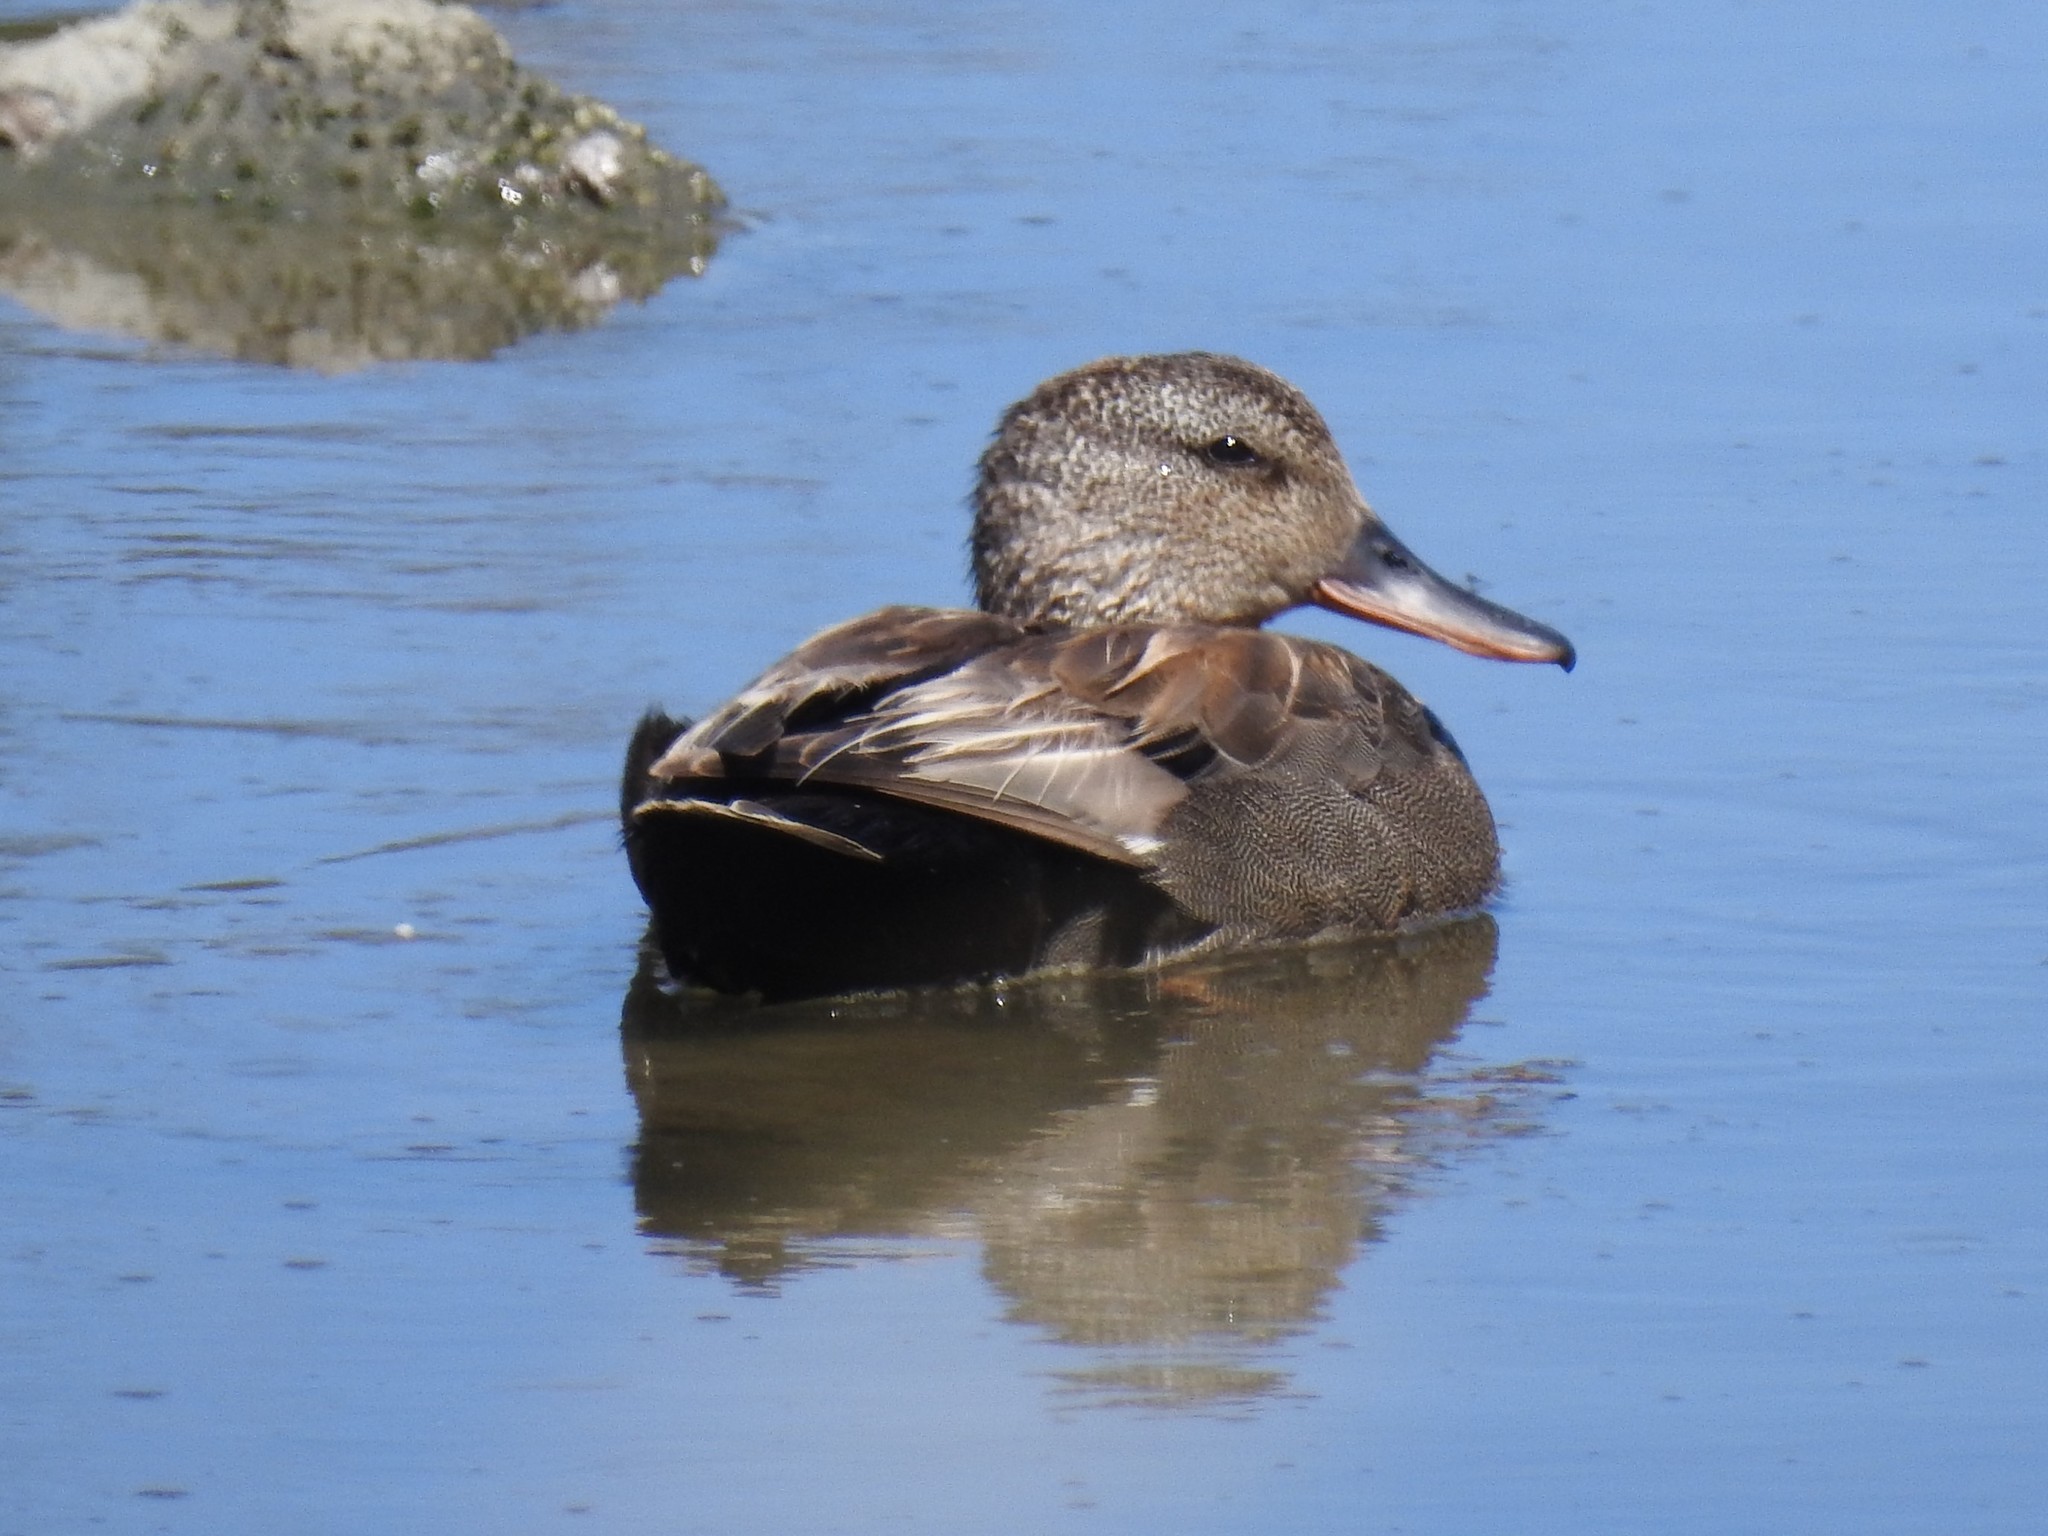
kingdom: Animalia
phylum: Chordata
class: Aves
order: Anseriformes
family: Anatidae
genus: Mareca
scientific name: Mareca strepera
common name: Gadwall
